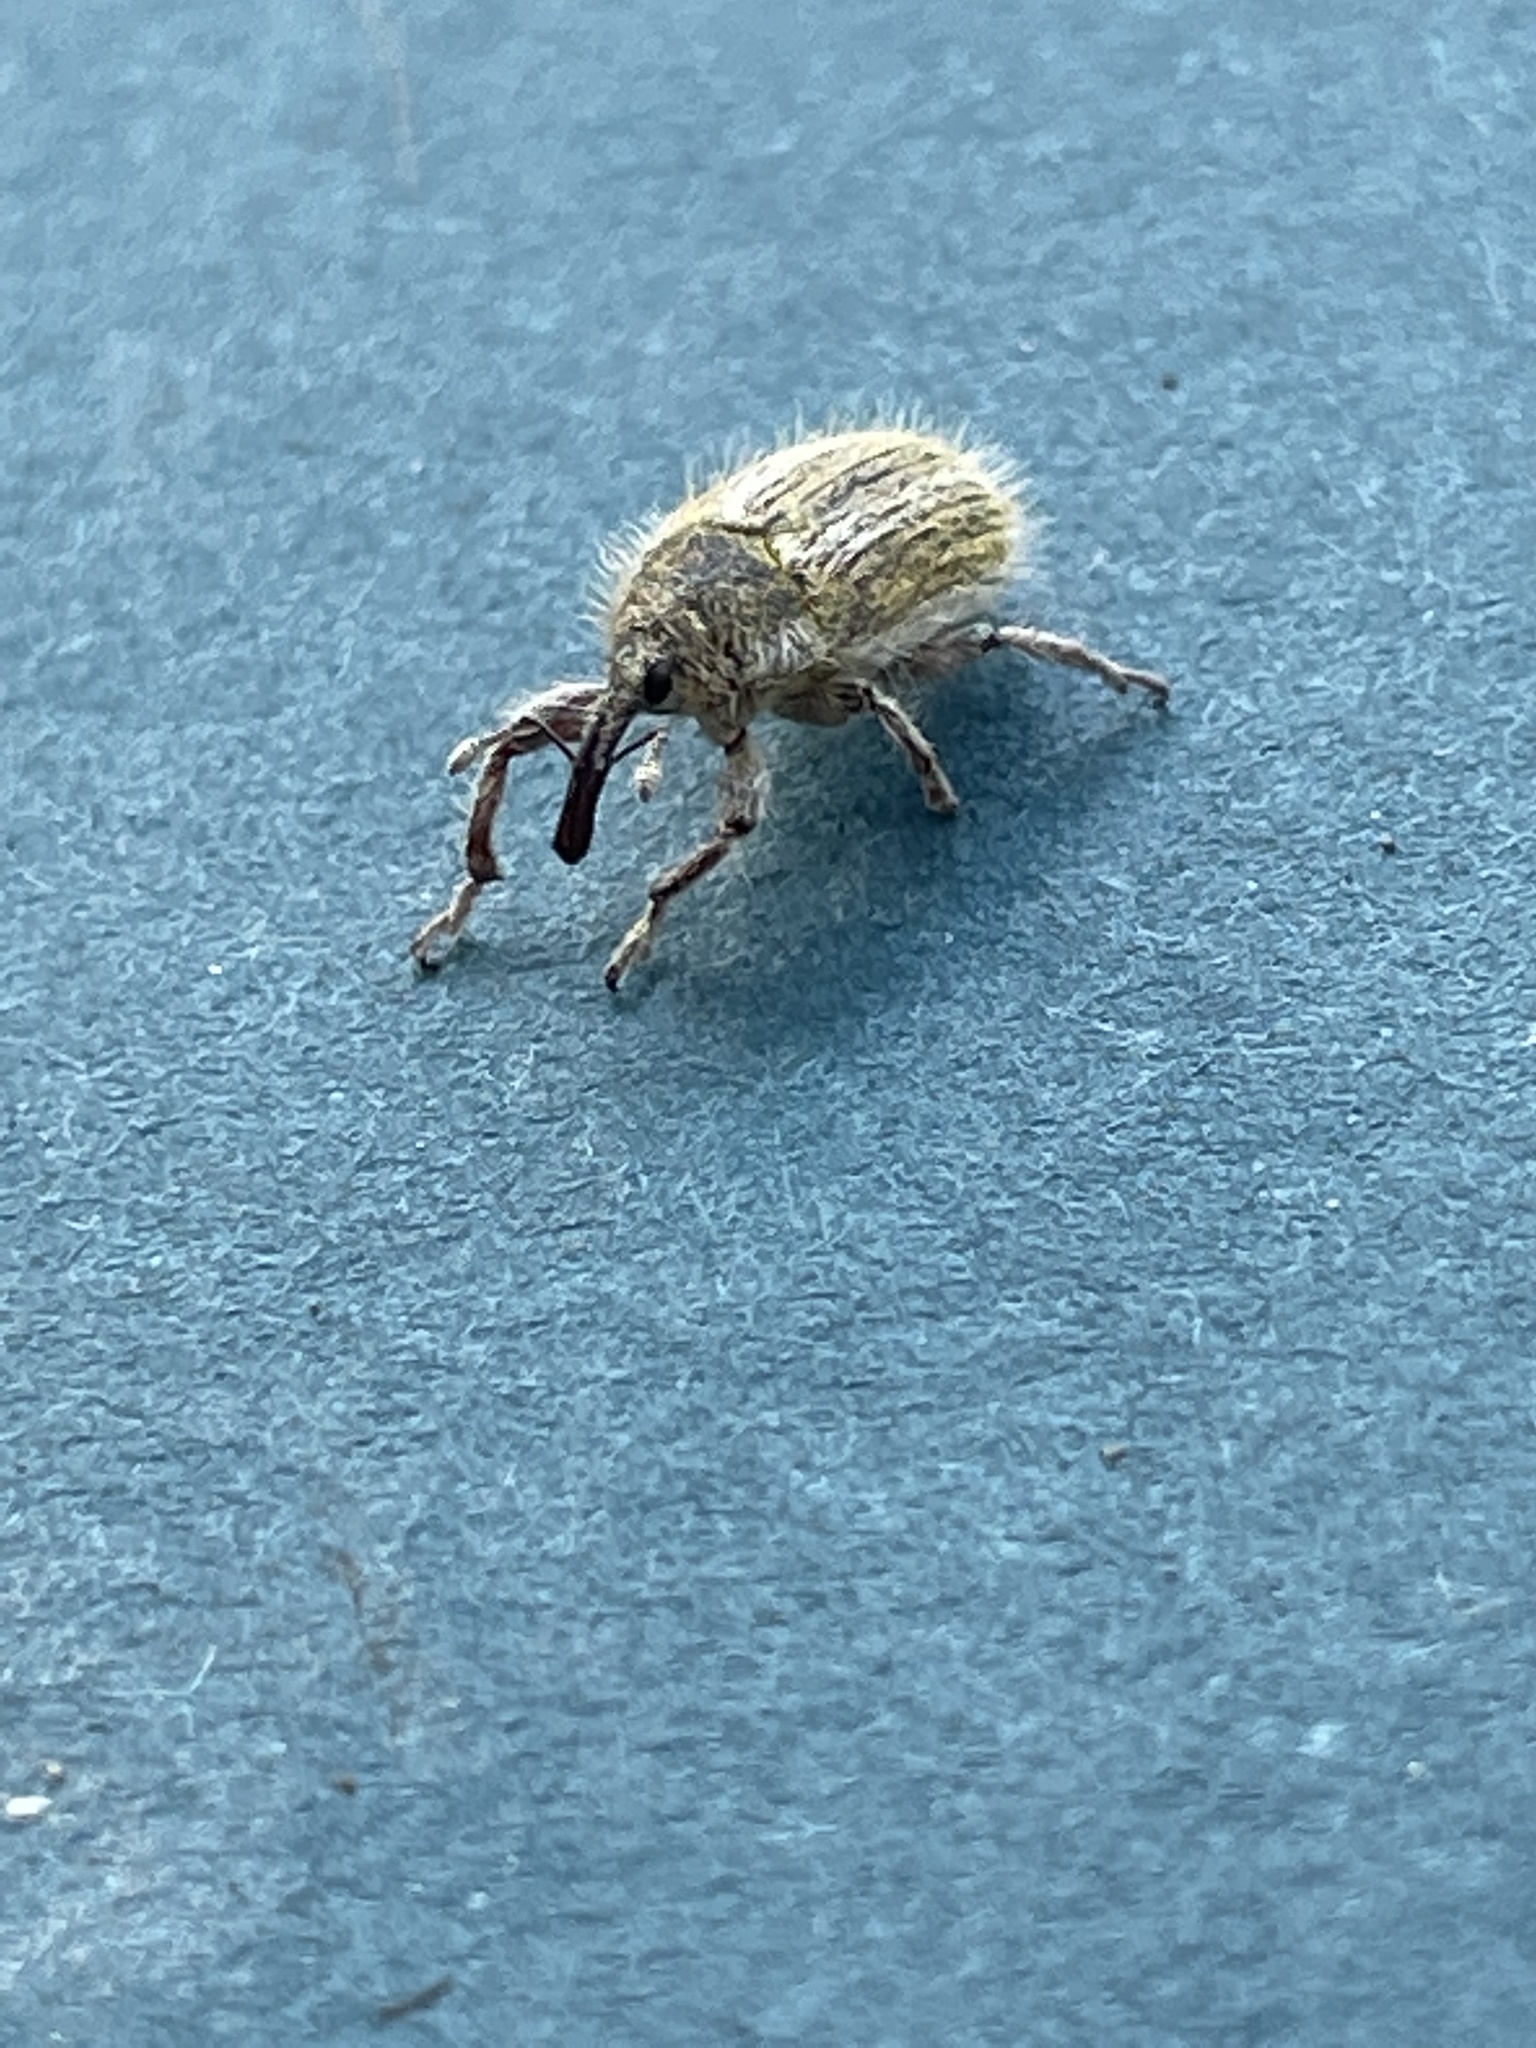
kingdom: Animalia
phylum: Arthropoda
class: Insecta
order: Coleoptera
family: Curculionidae
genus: Larinus
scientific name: Larinus villosus
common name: Yellow starthistle hairy weevil
